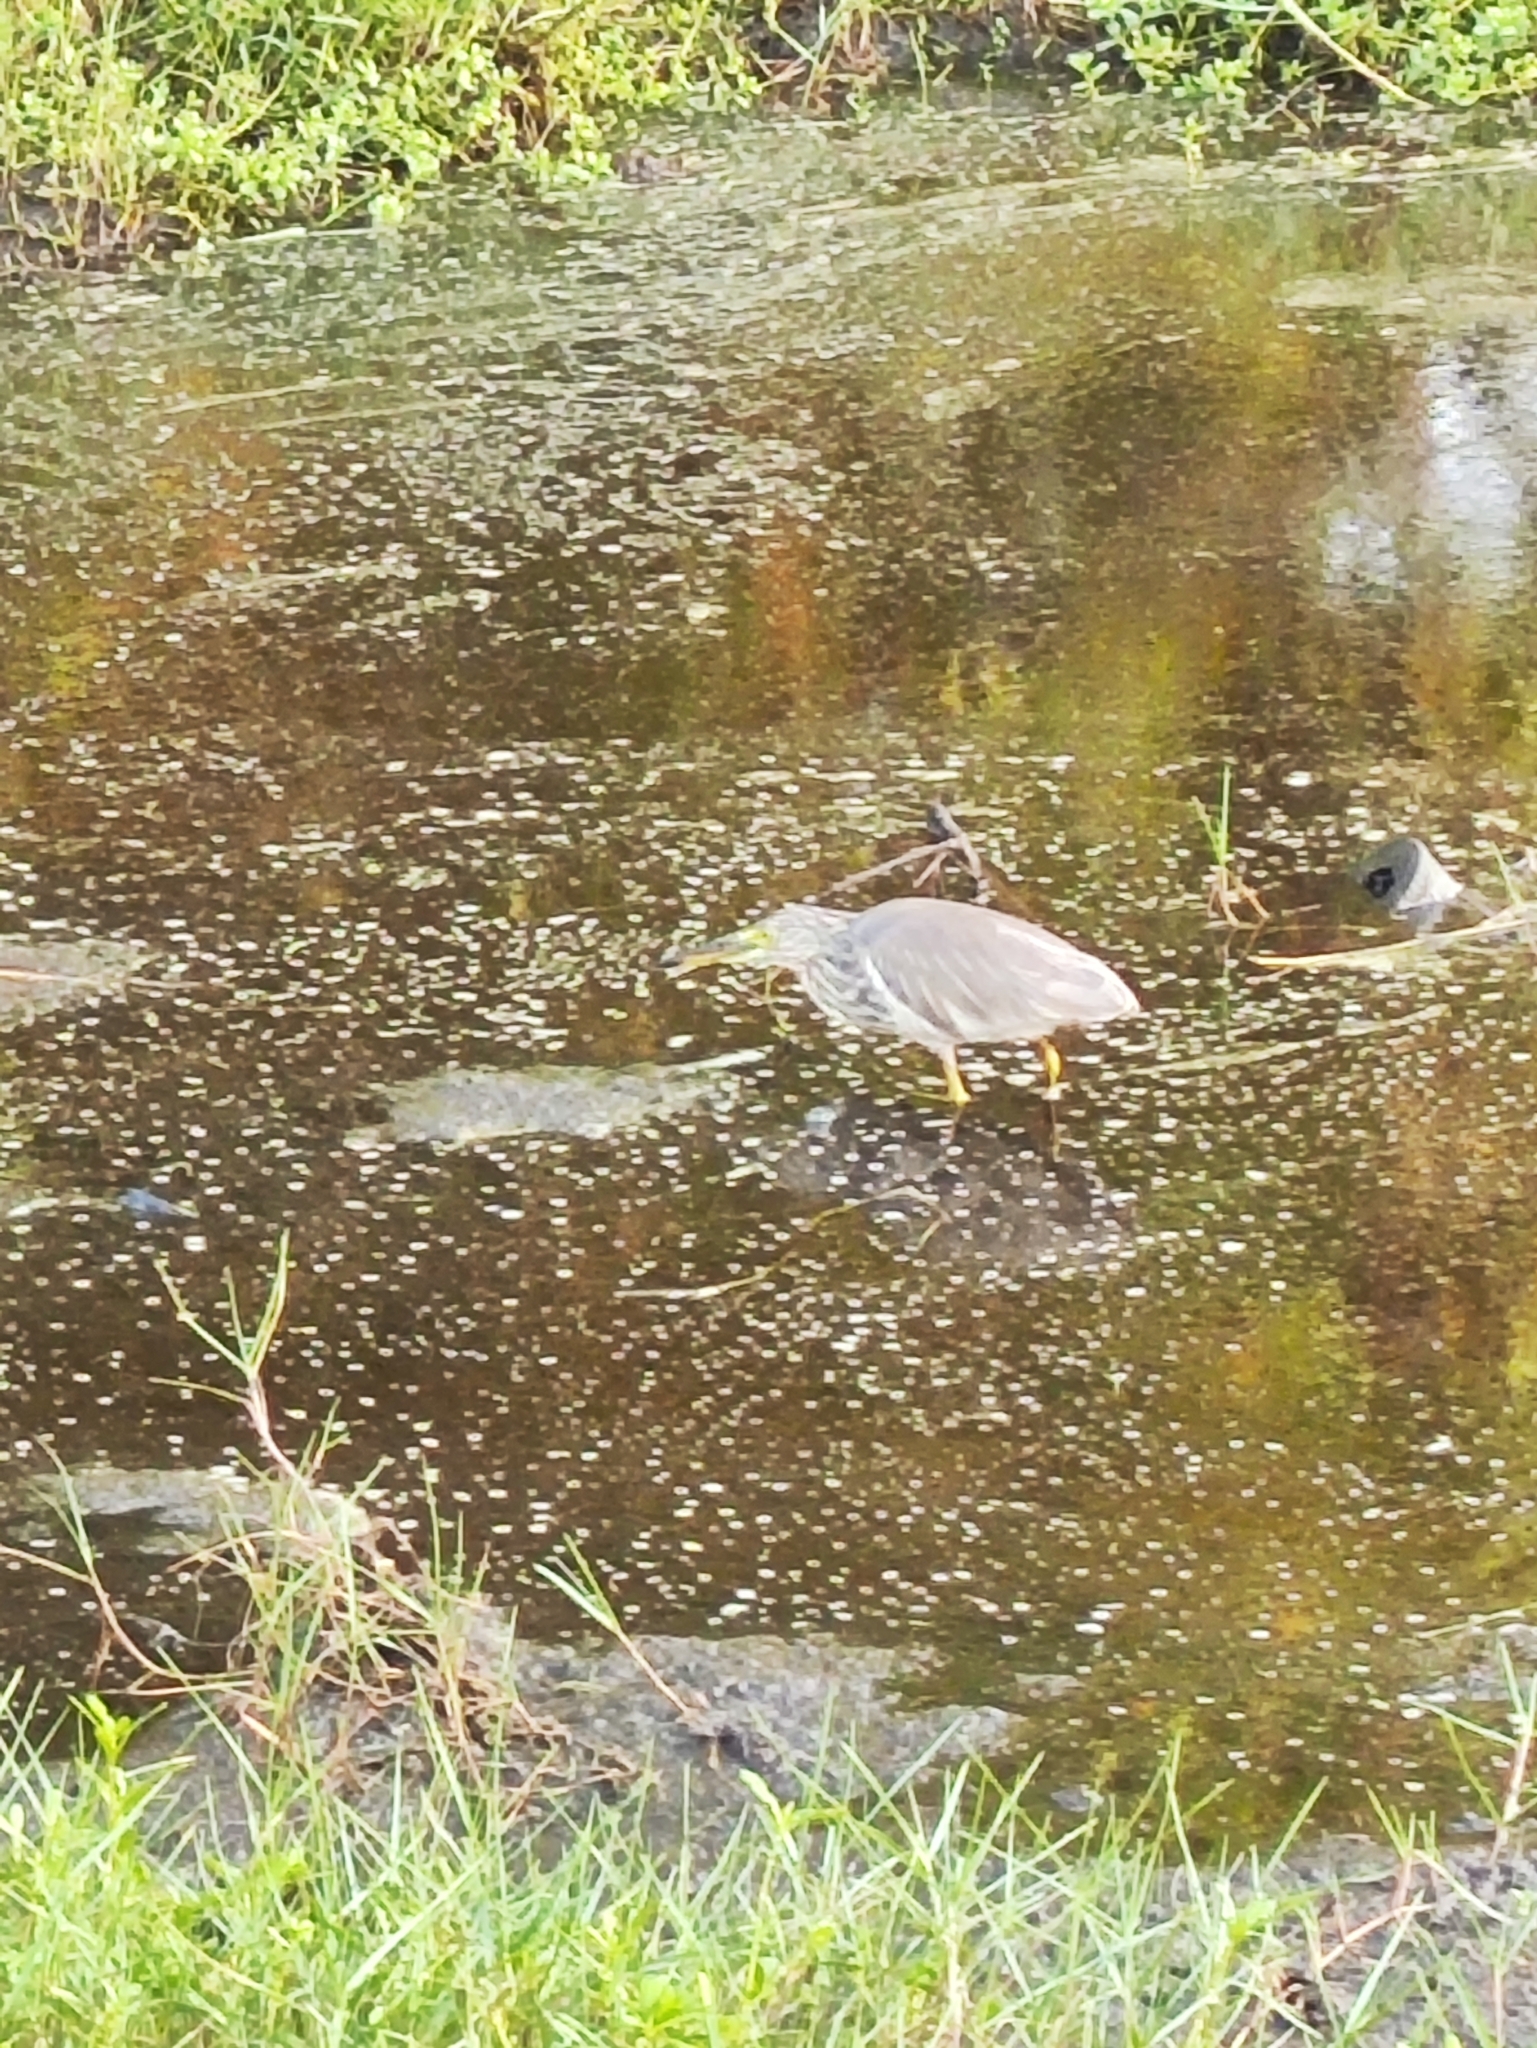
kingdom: Animalia
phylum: Chordata
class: Aves
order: Pelecaniformes
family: Ardeidae
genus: Ardeola
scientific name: Ardeola grayii
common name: Indian pond heron
